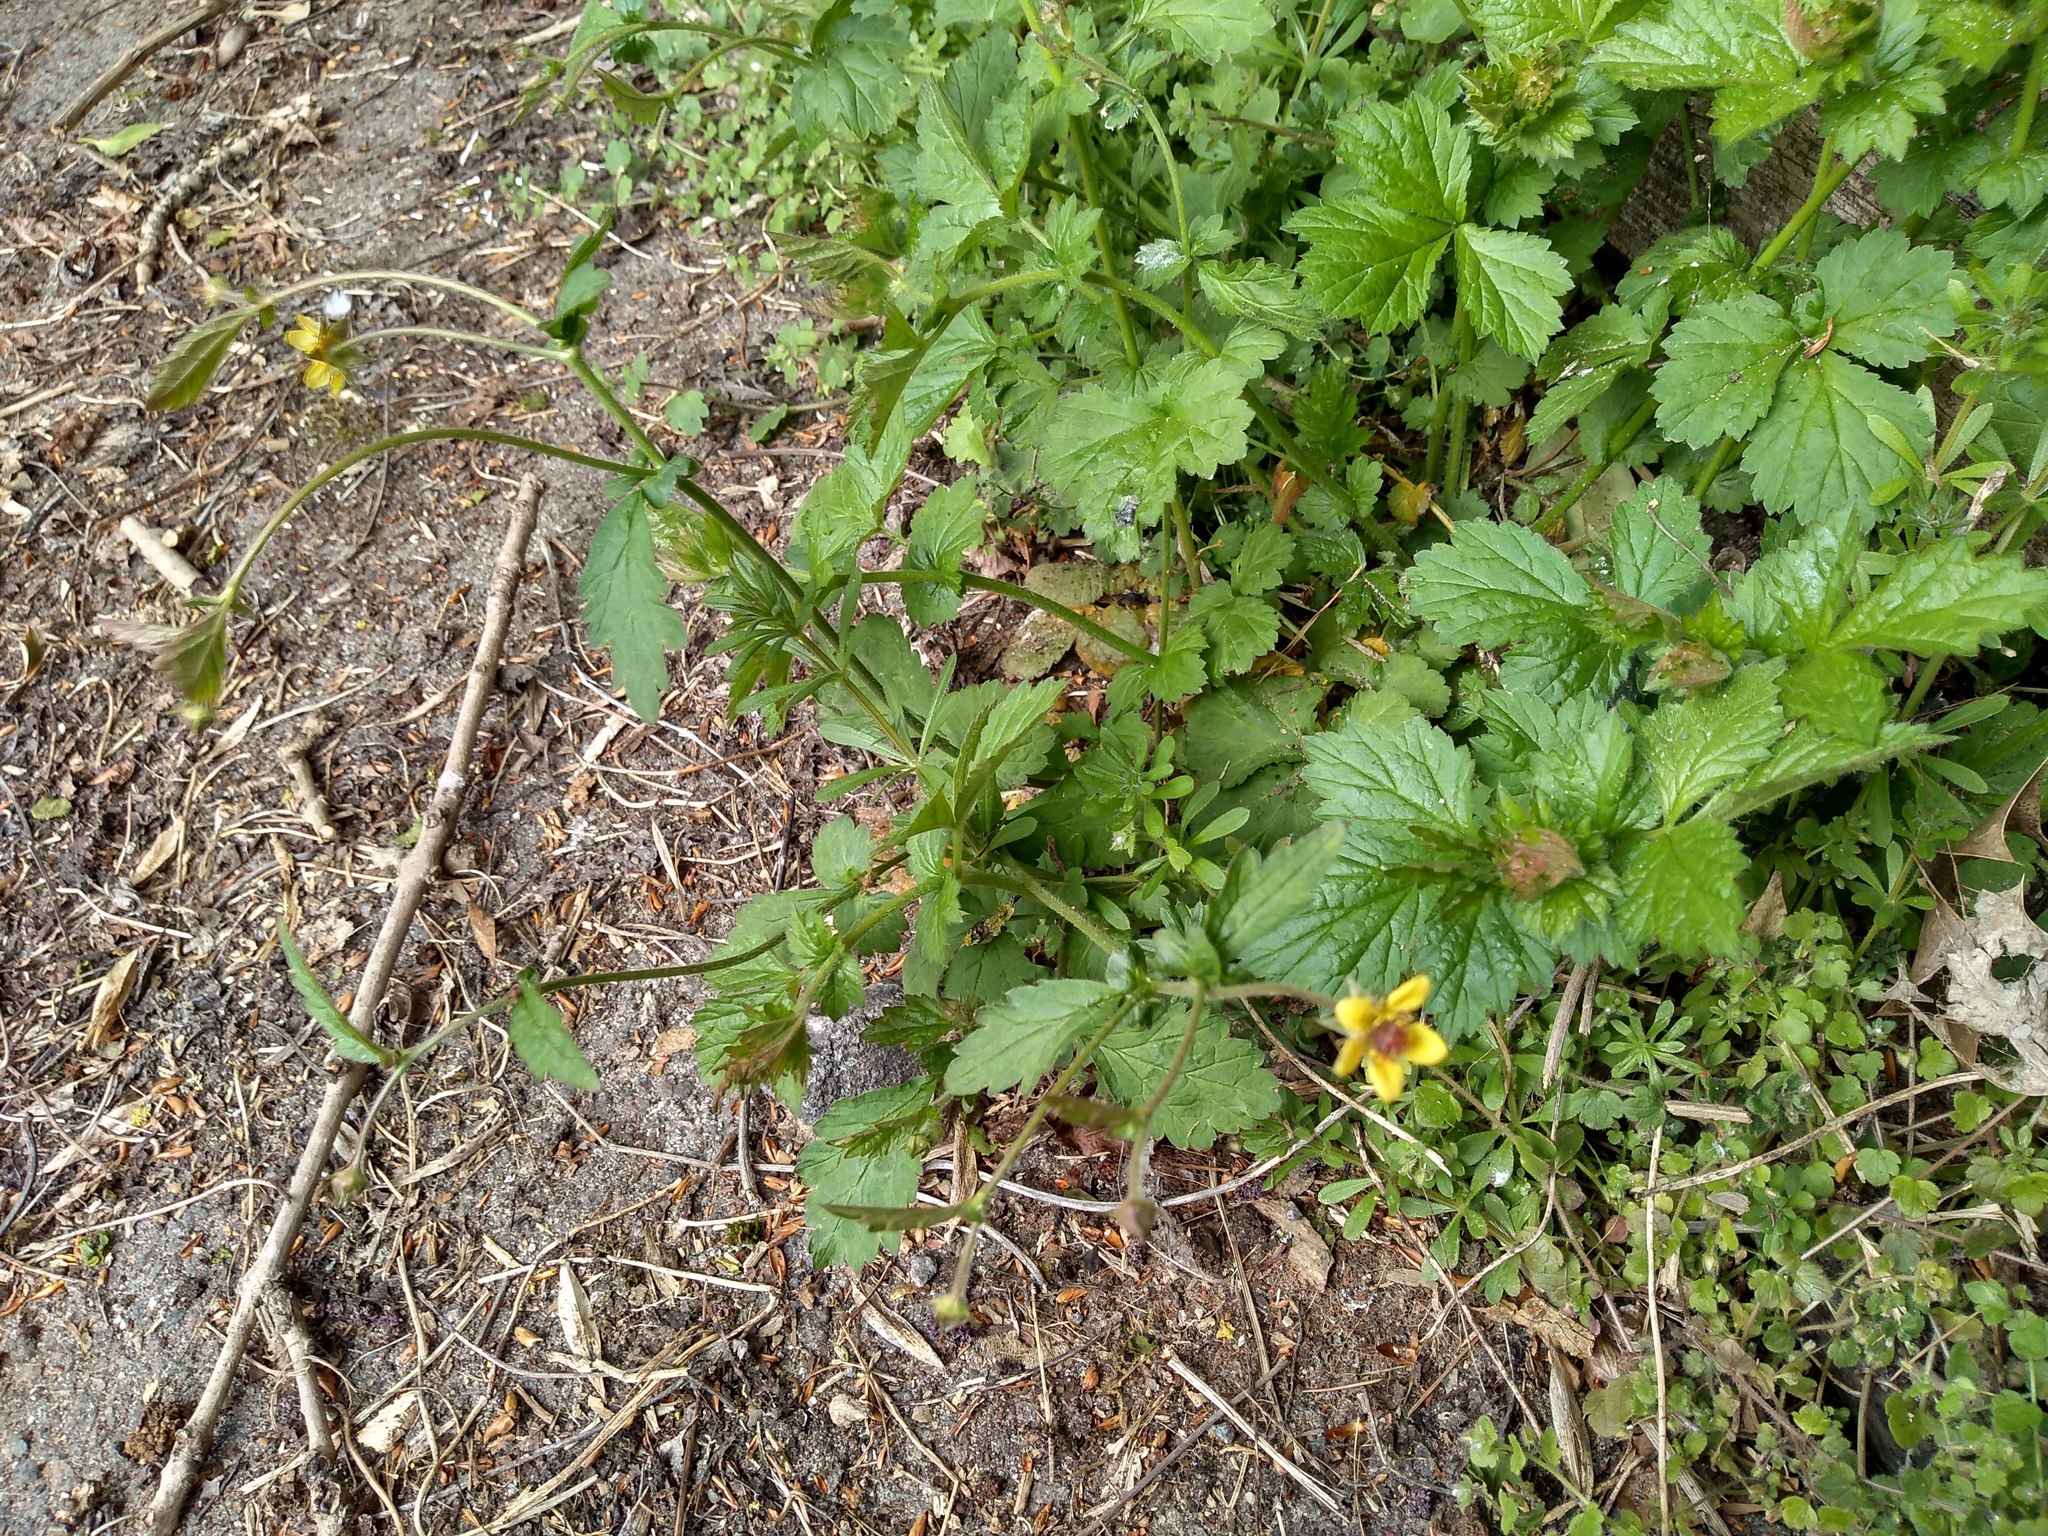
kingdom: Plantae
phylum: Tracheophyta
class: Magnoliopsida
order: Rosales
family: Rosaceae
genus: Geum
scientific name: Geum urbanum
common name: Wood avens
